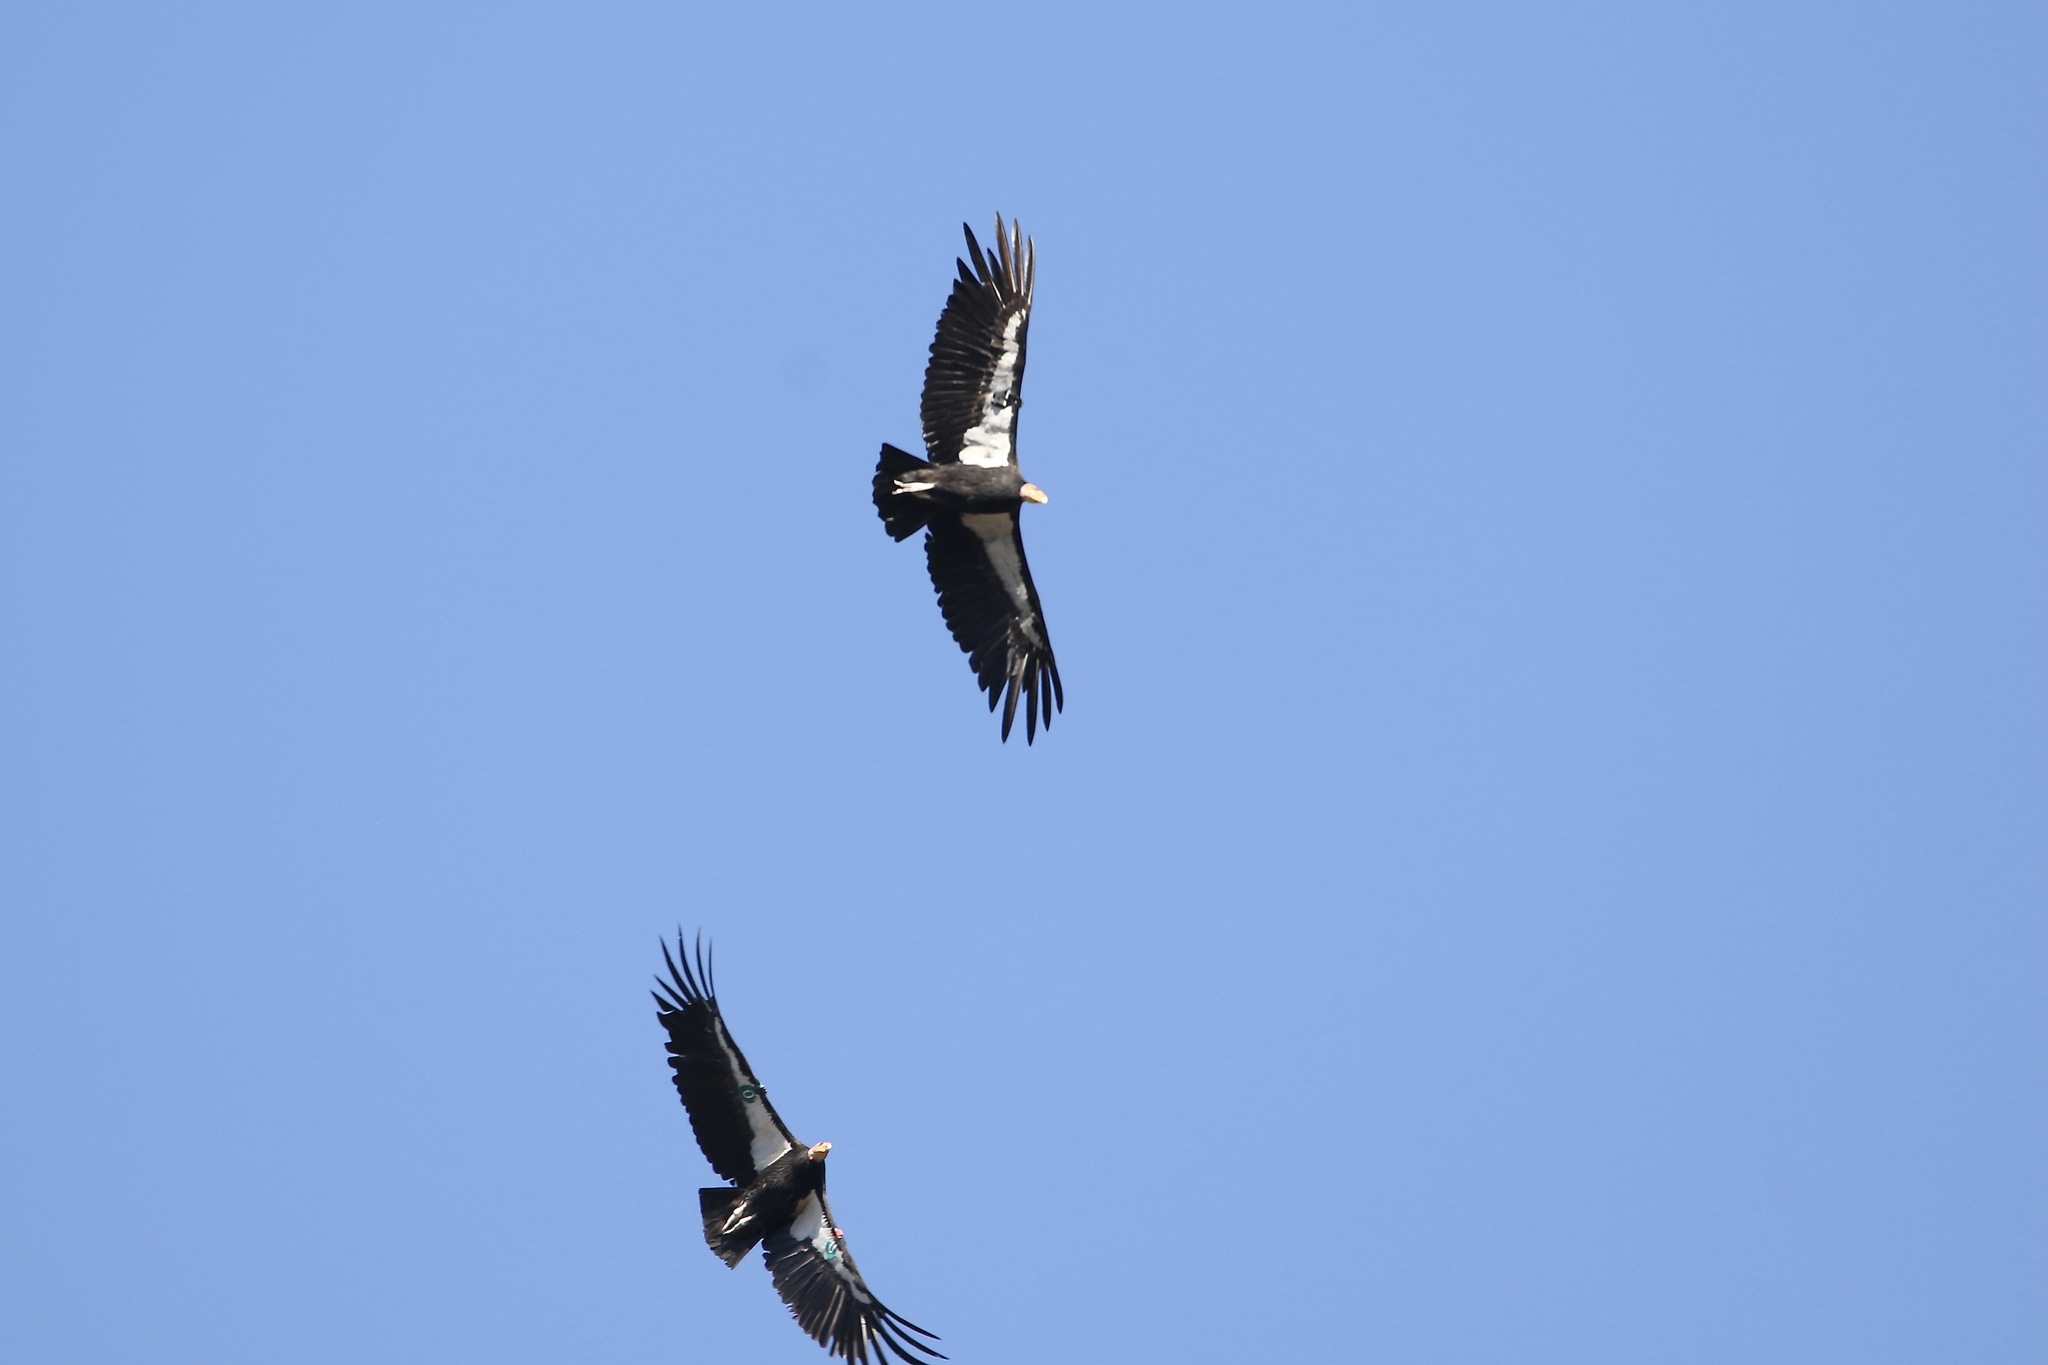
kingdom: Animalia
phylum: Chordata
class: Aves
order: Accipitriformes
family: Cathartidae
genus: Gymnogyps
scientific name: Gymnogyps californianus
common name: California condor
